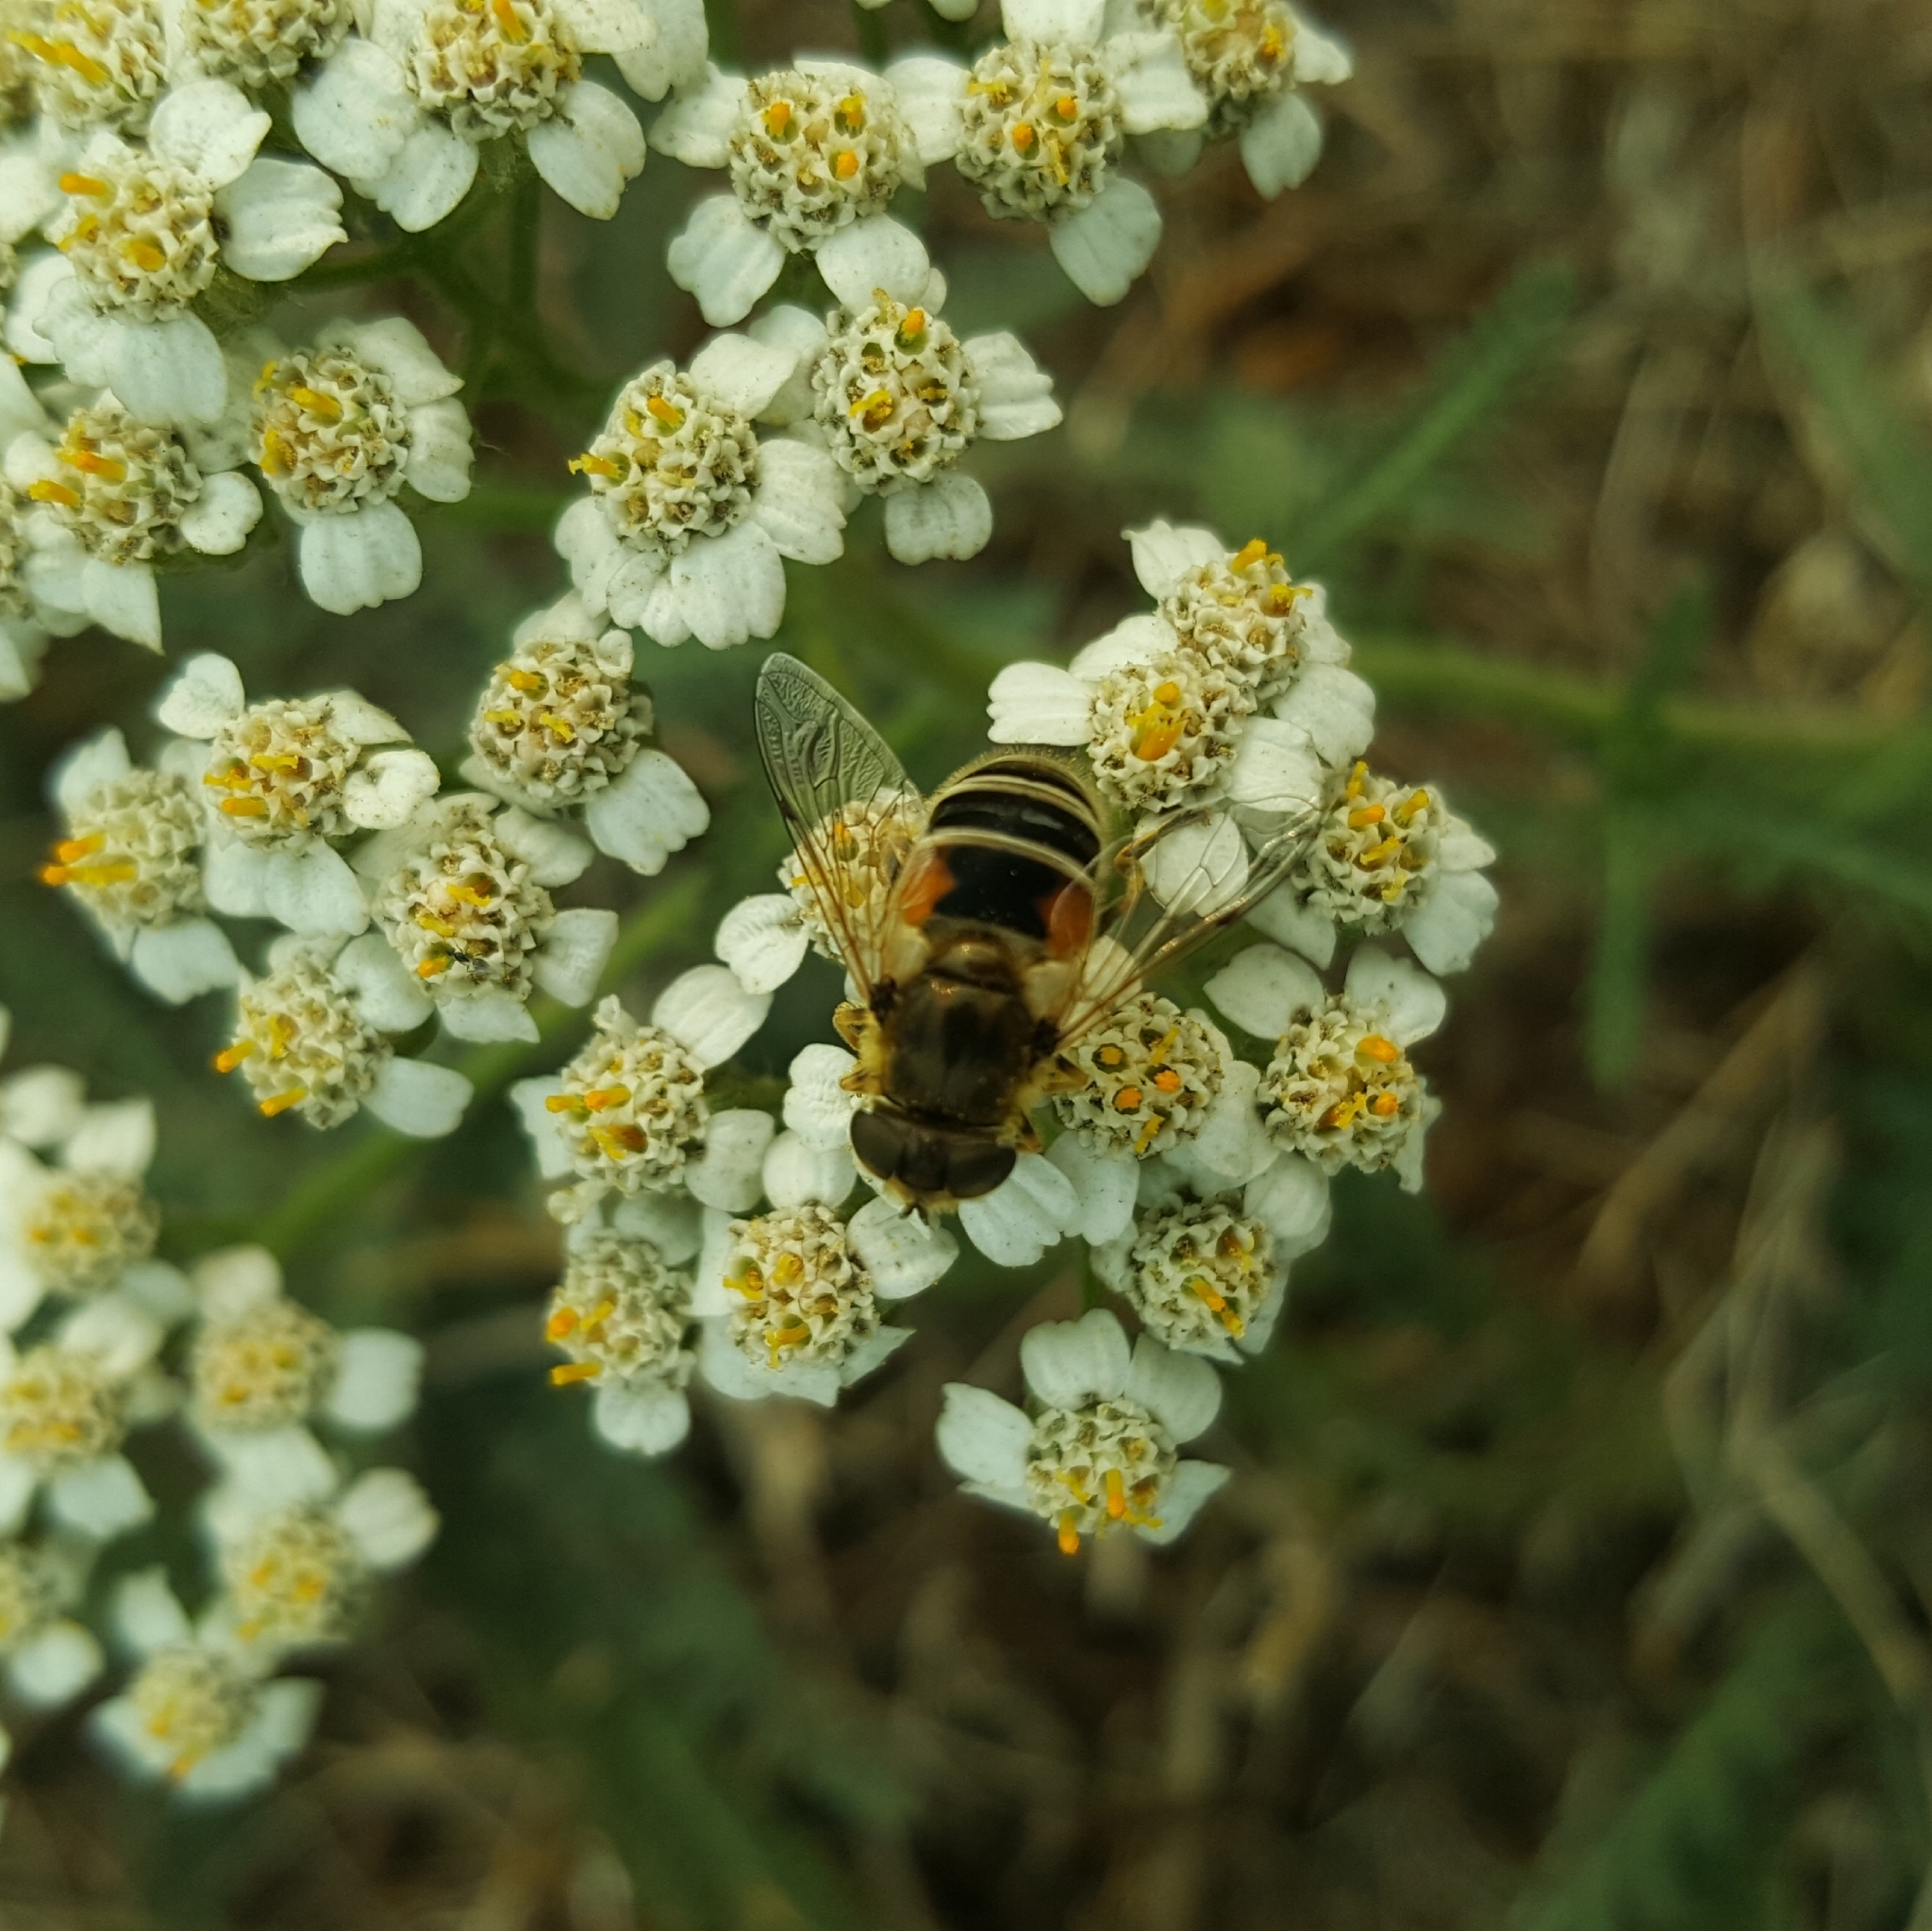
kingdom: Animalia
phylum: Arthropoda
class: Insecta
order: Diptera
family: Syrphidae
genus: Eristalis
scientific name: Eristalis arbustorum
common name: Hover fly
